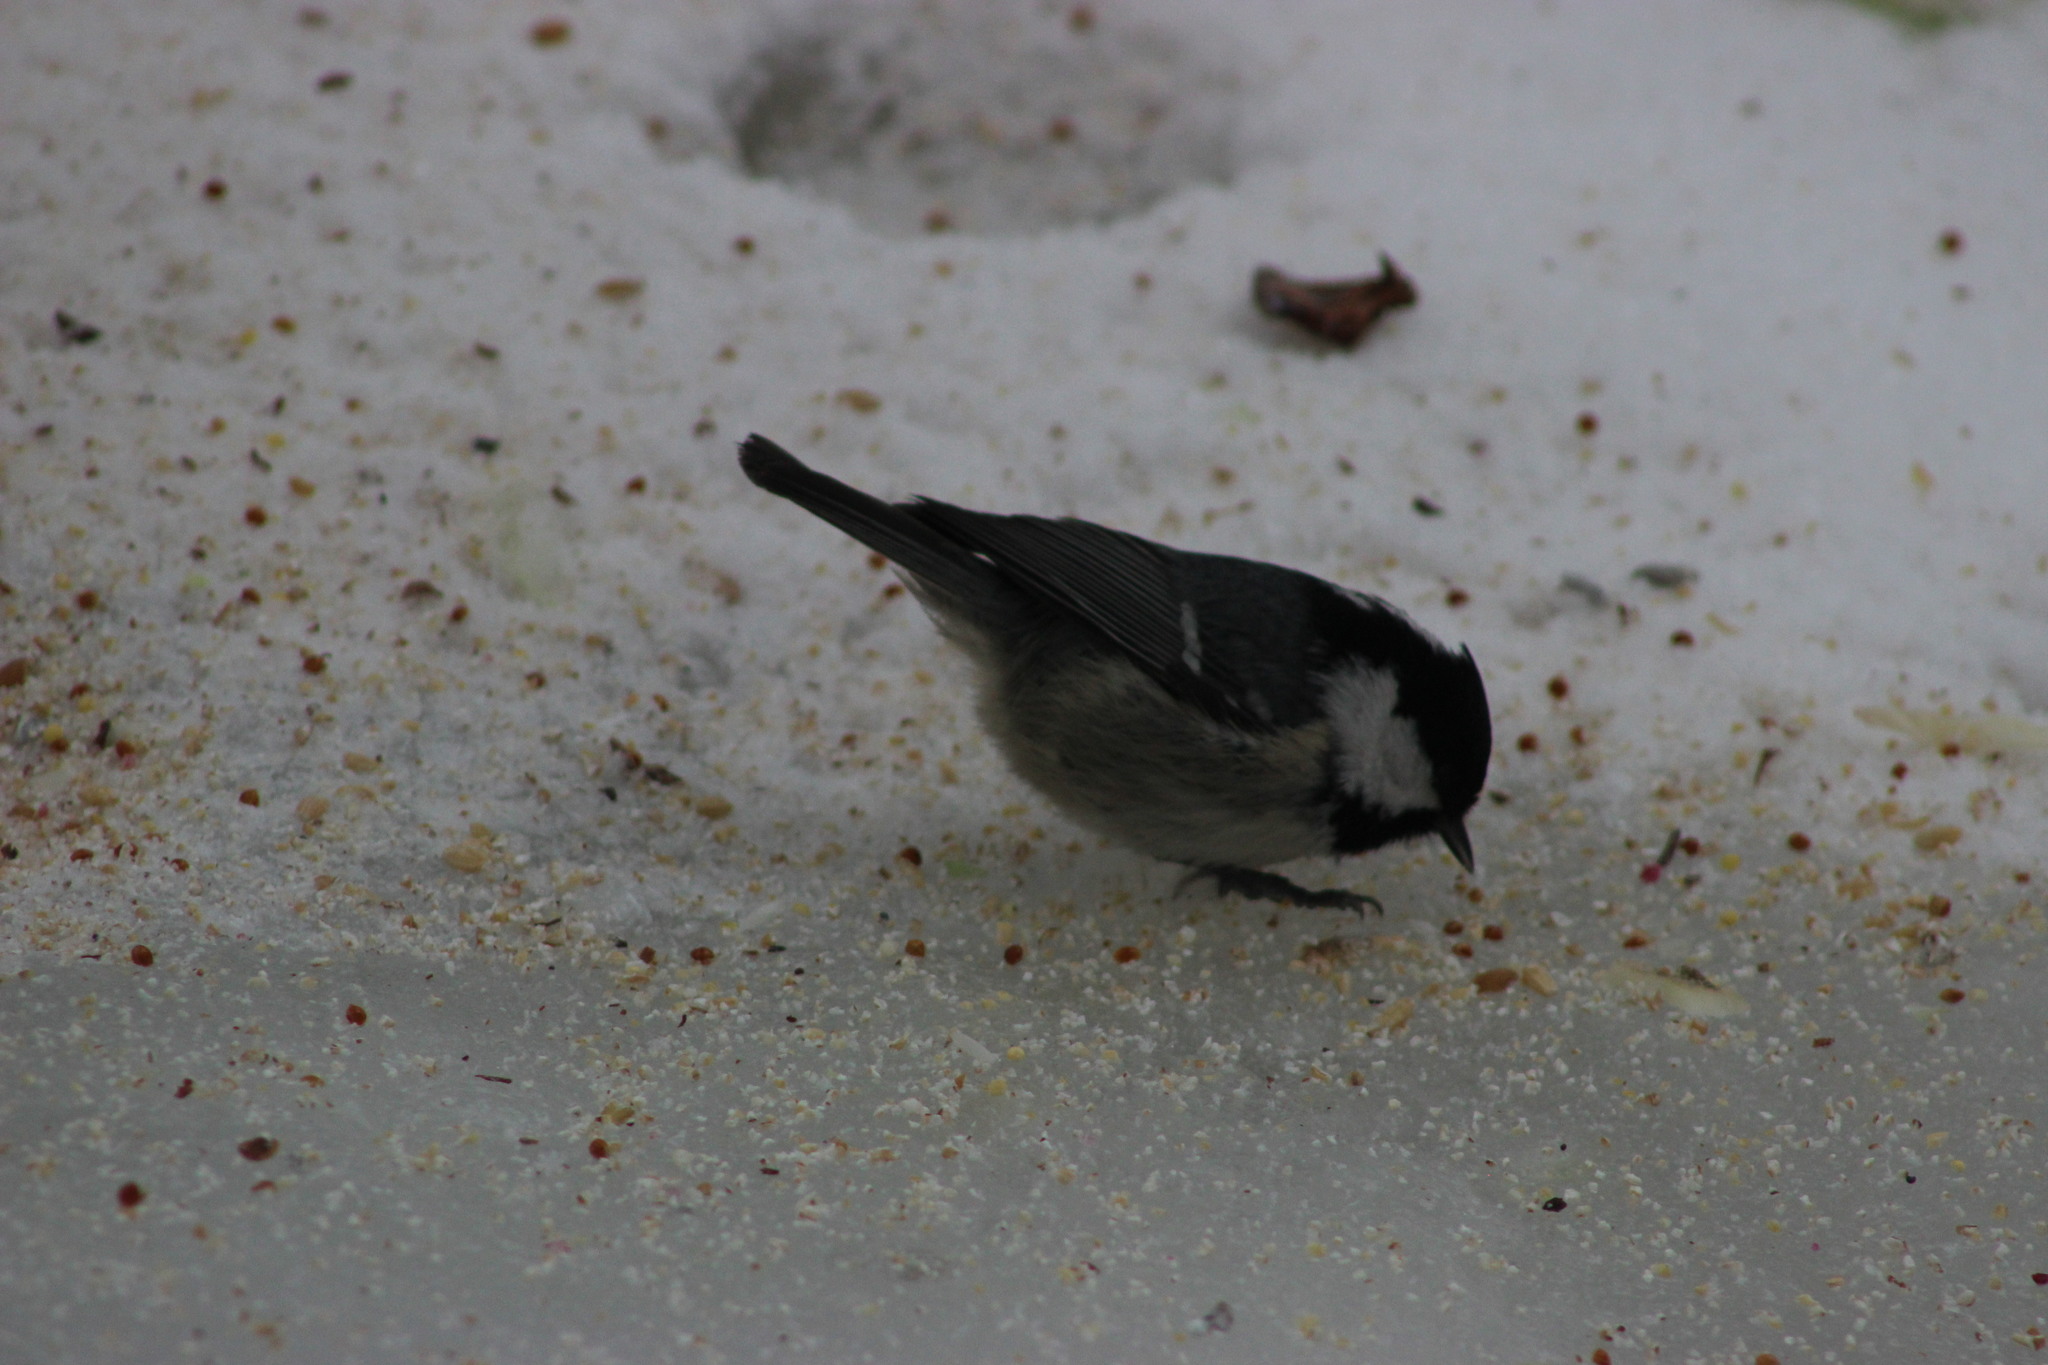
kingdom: Animalia
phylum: Chordata
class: Aves
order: Passeriformes
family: Paridae
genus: Periparus
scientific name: Periparus ater
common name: Coal tit
